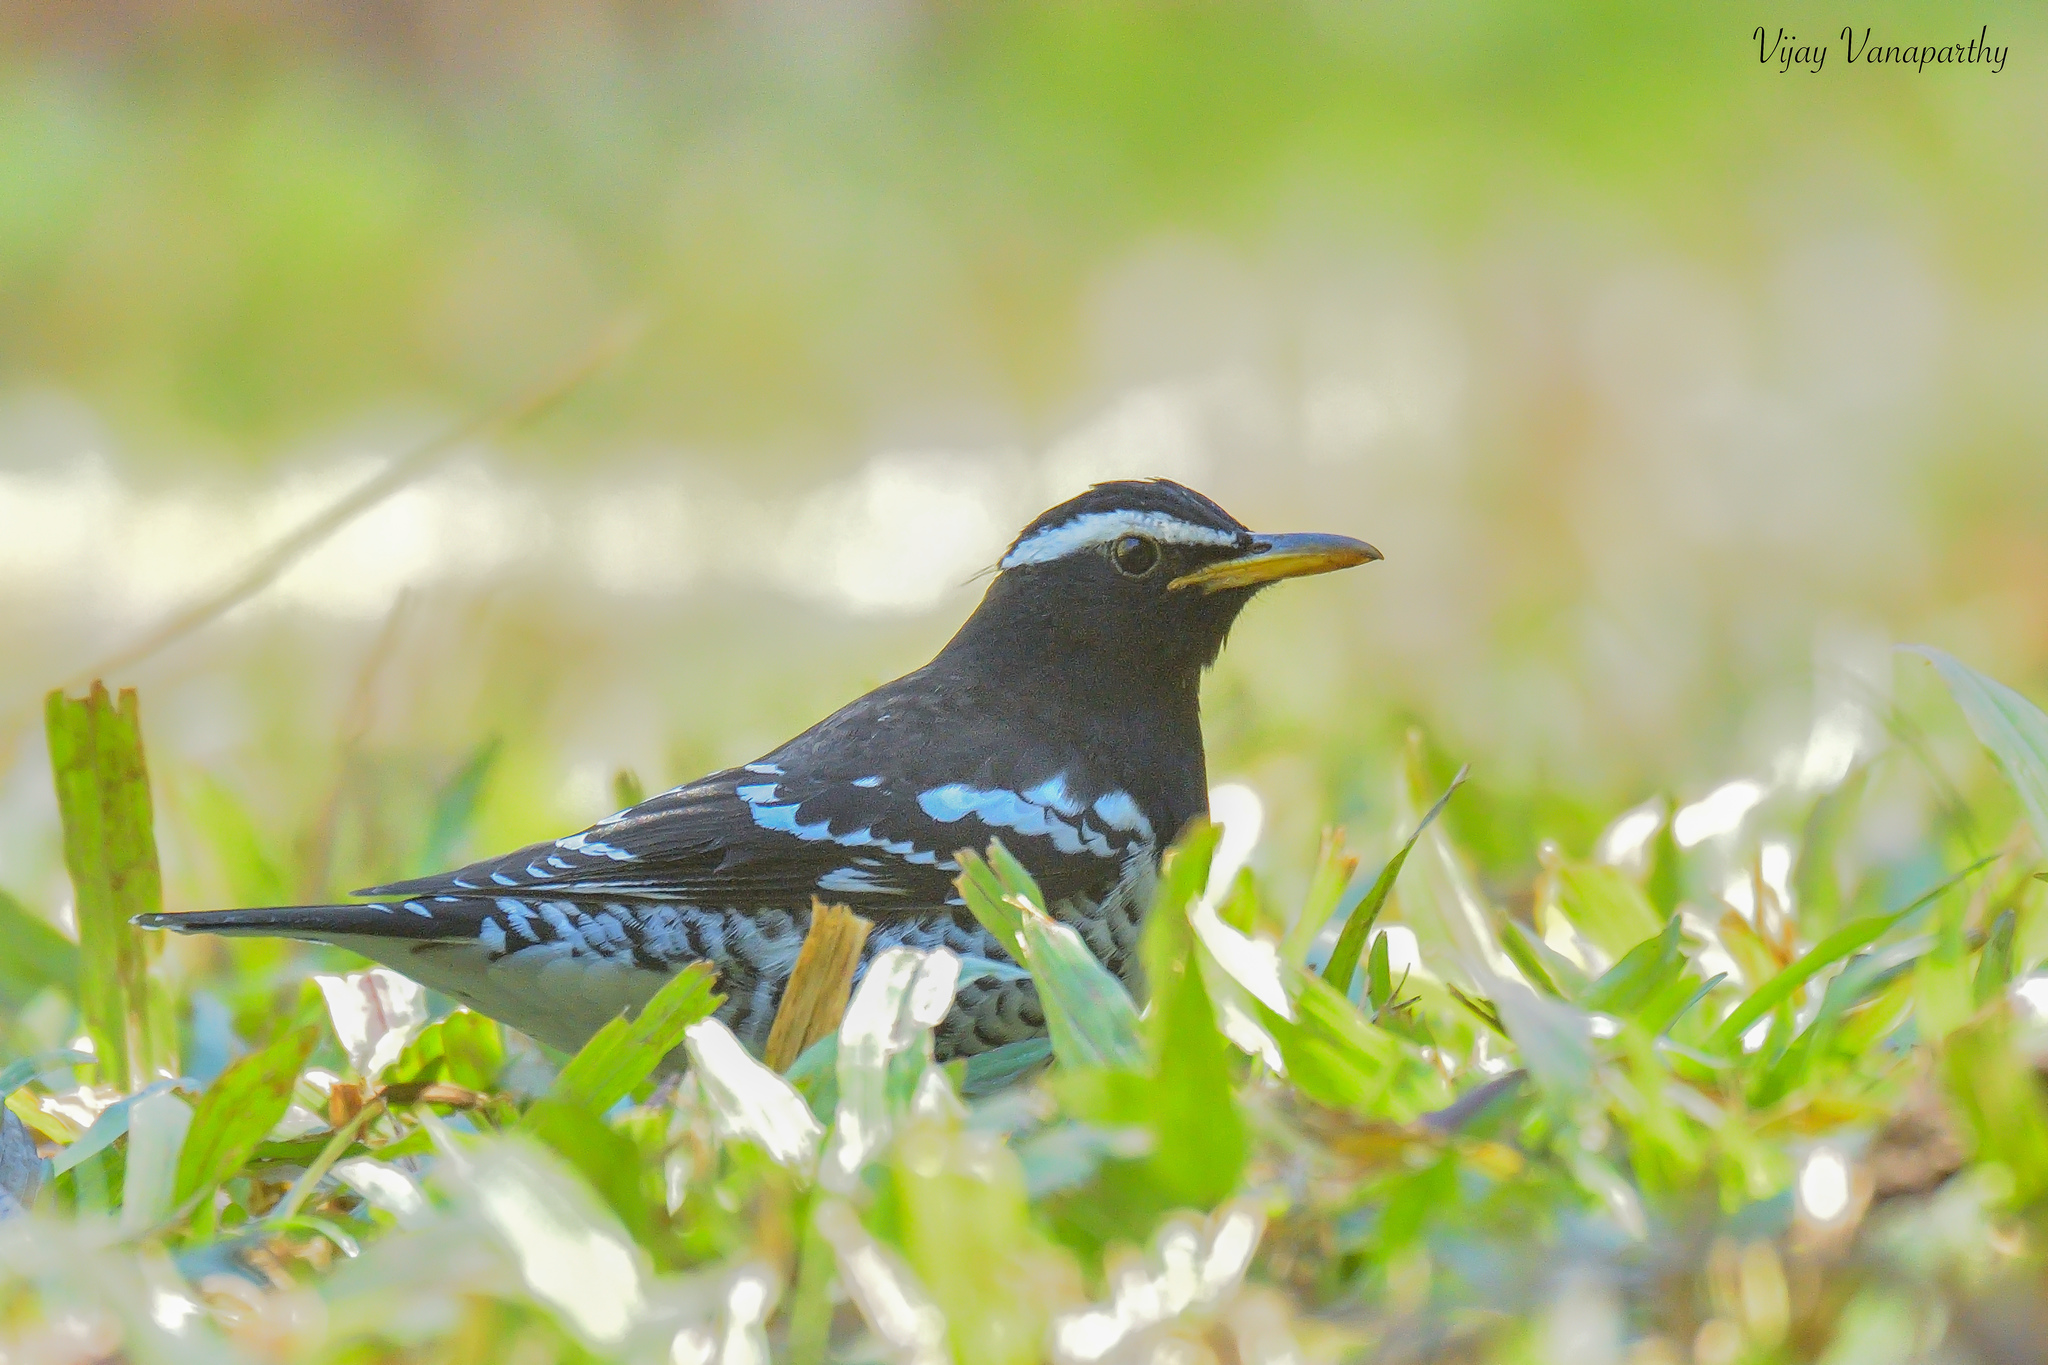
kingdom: Animalia
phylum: Chordata
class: Aves
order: Passeriformes
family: Turdidae
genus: Geokichla
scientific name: Geokichla wardii
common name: Pied thrush
